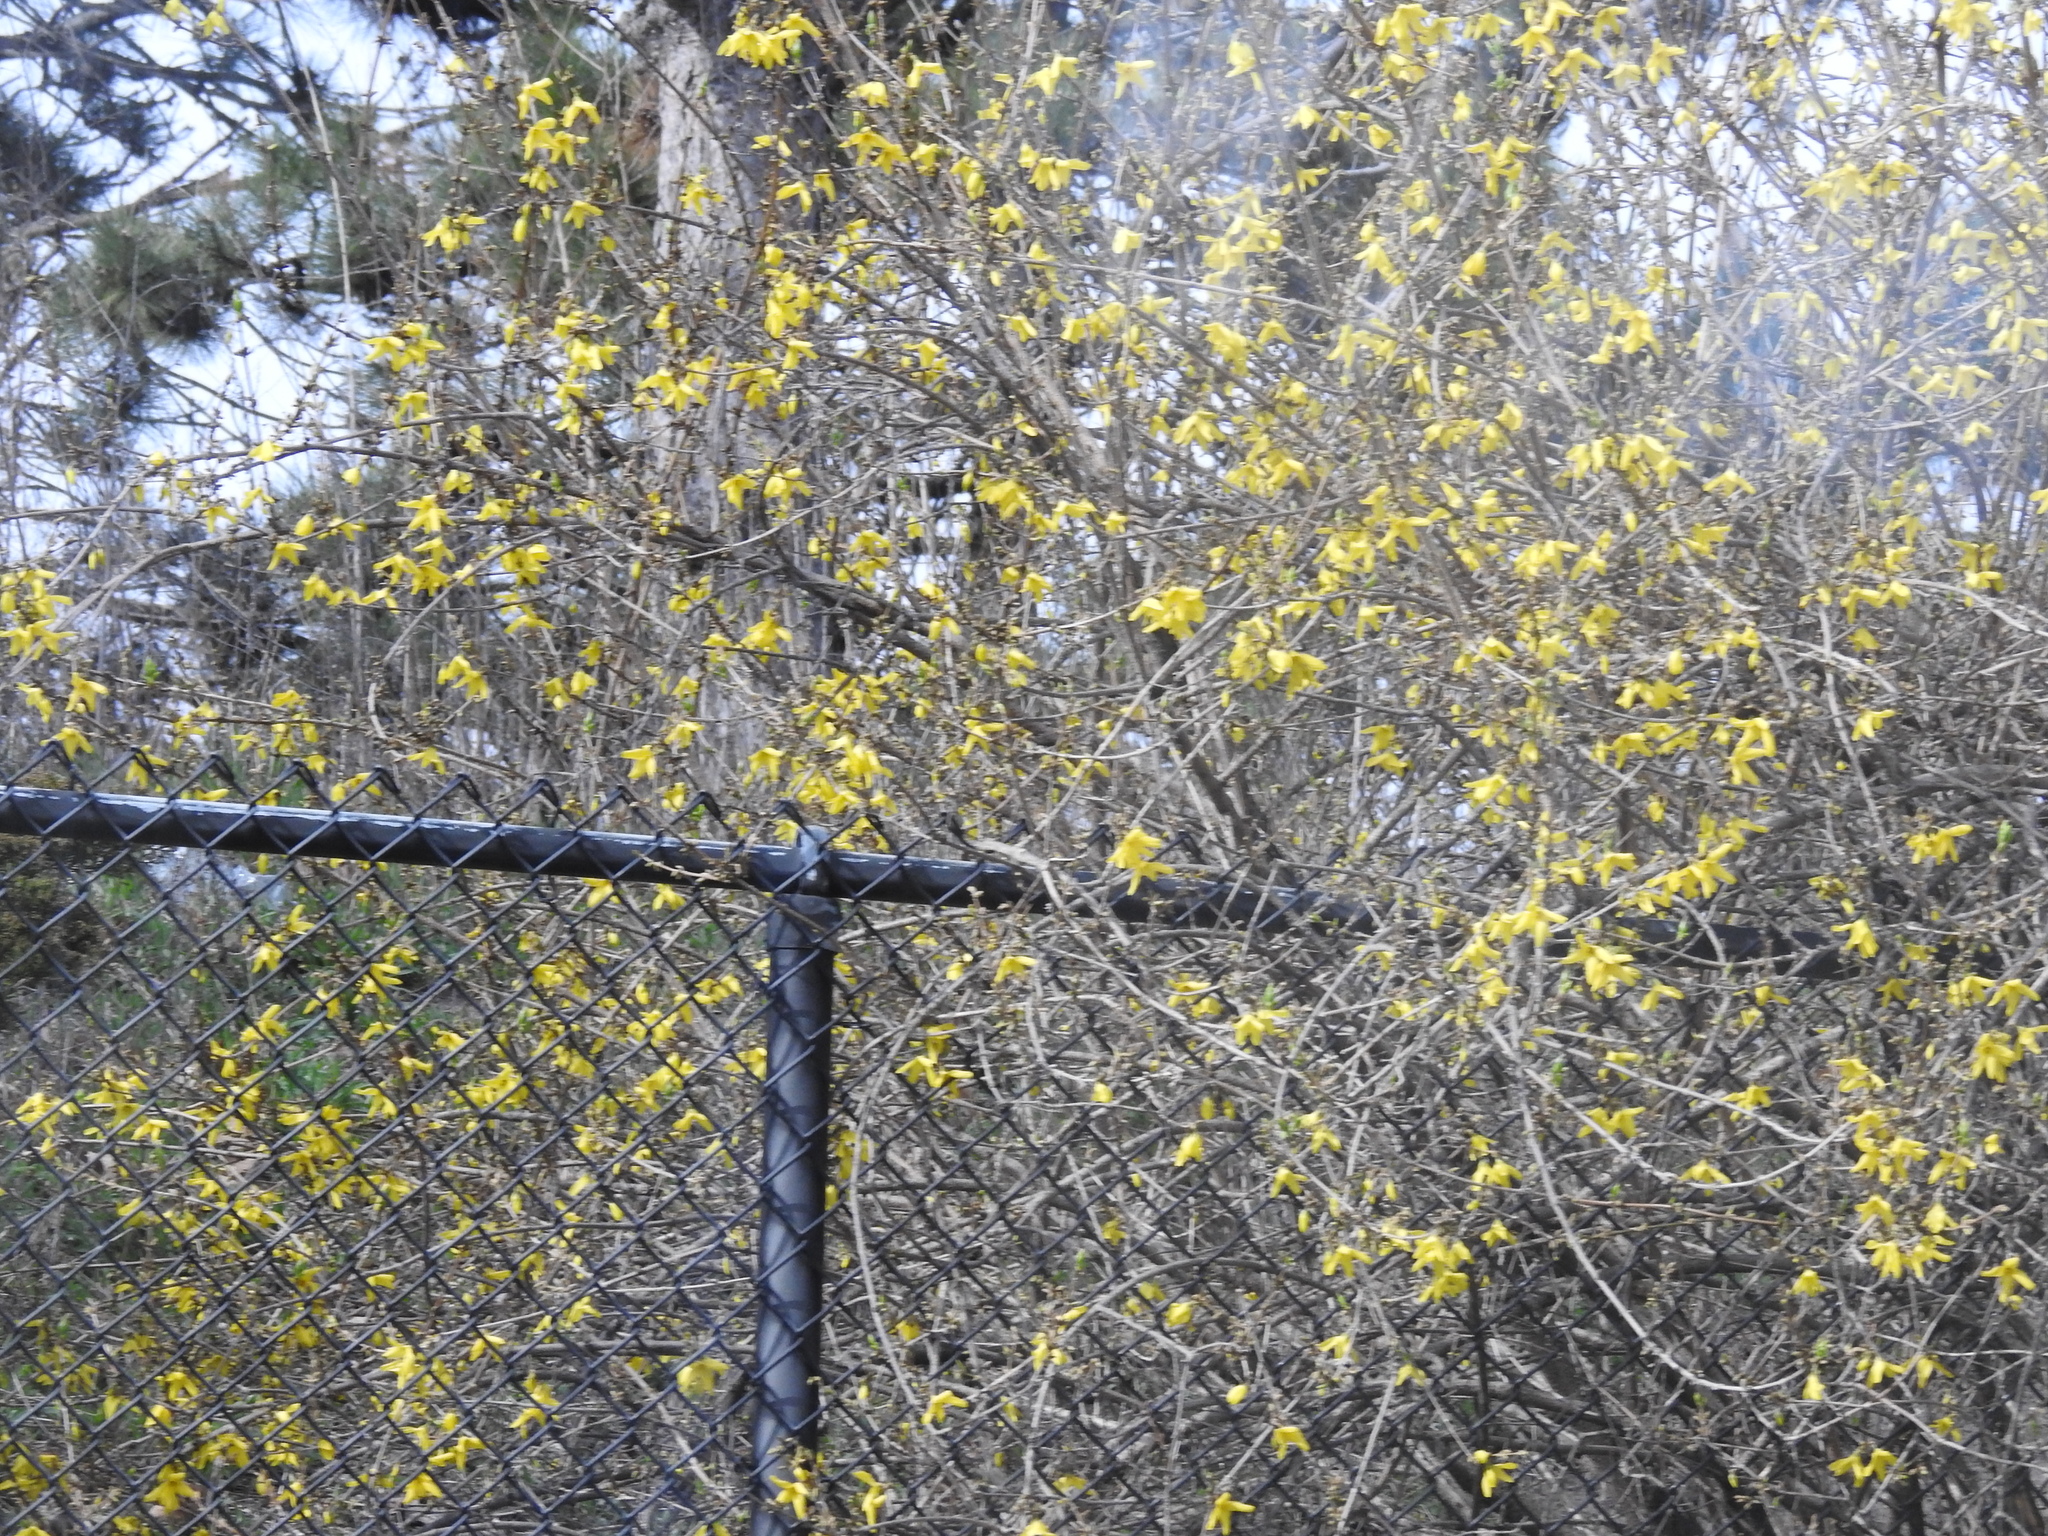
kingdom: Plantae
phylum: Tracheophyta
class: Magnoliopsida
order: Lamiales
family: Oleaceae
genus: Forsythia
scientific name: Forsythia intermedia
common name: Forsythia
